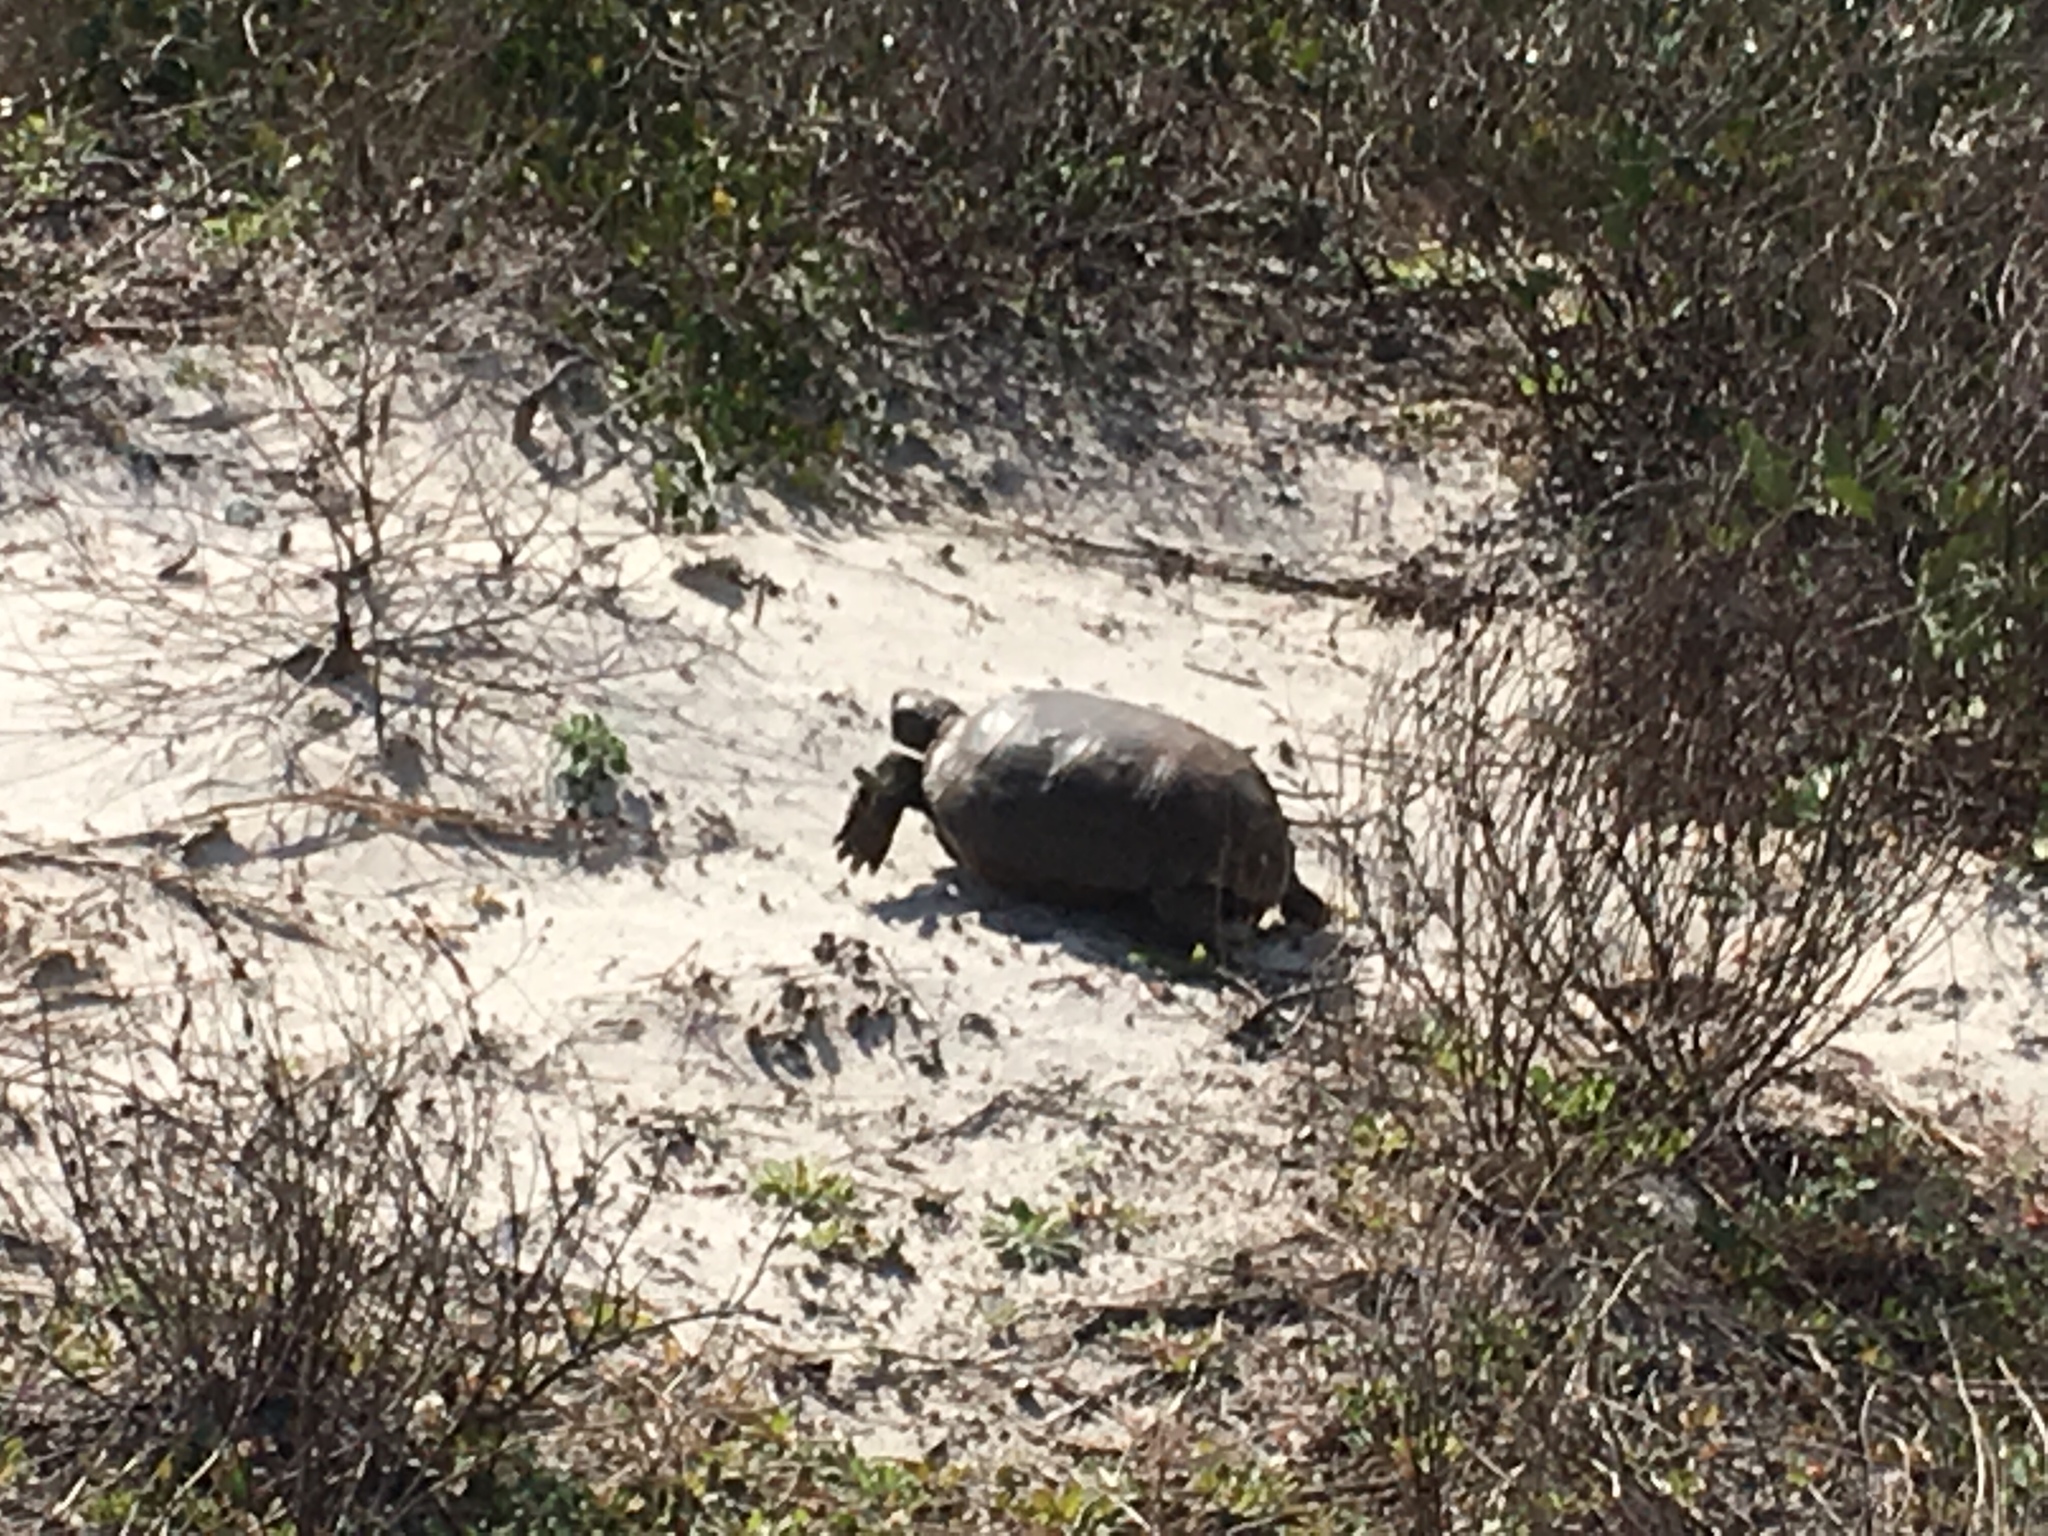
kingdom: Animalia
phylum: Chordata
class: Testudines
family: Testudinidae
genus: Gopherus
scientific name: Gopherus polyphemus
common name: Florida gopher tortoise
